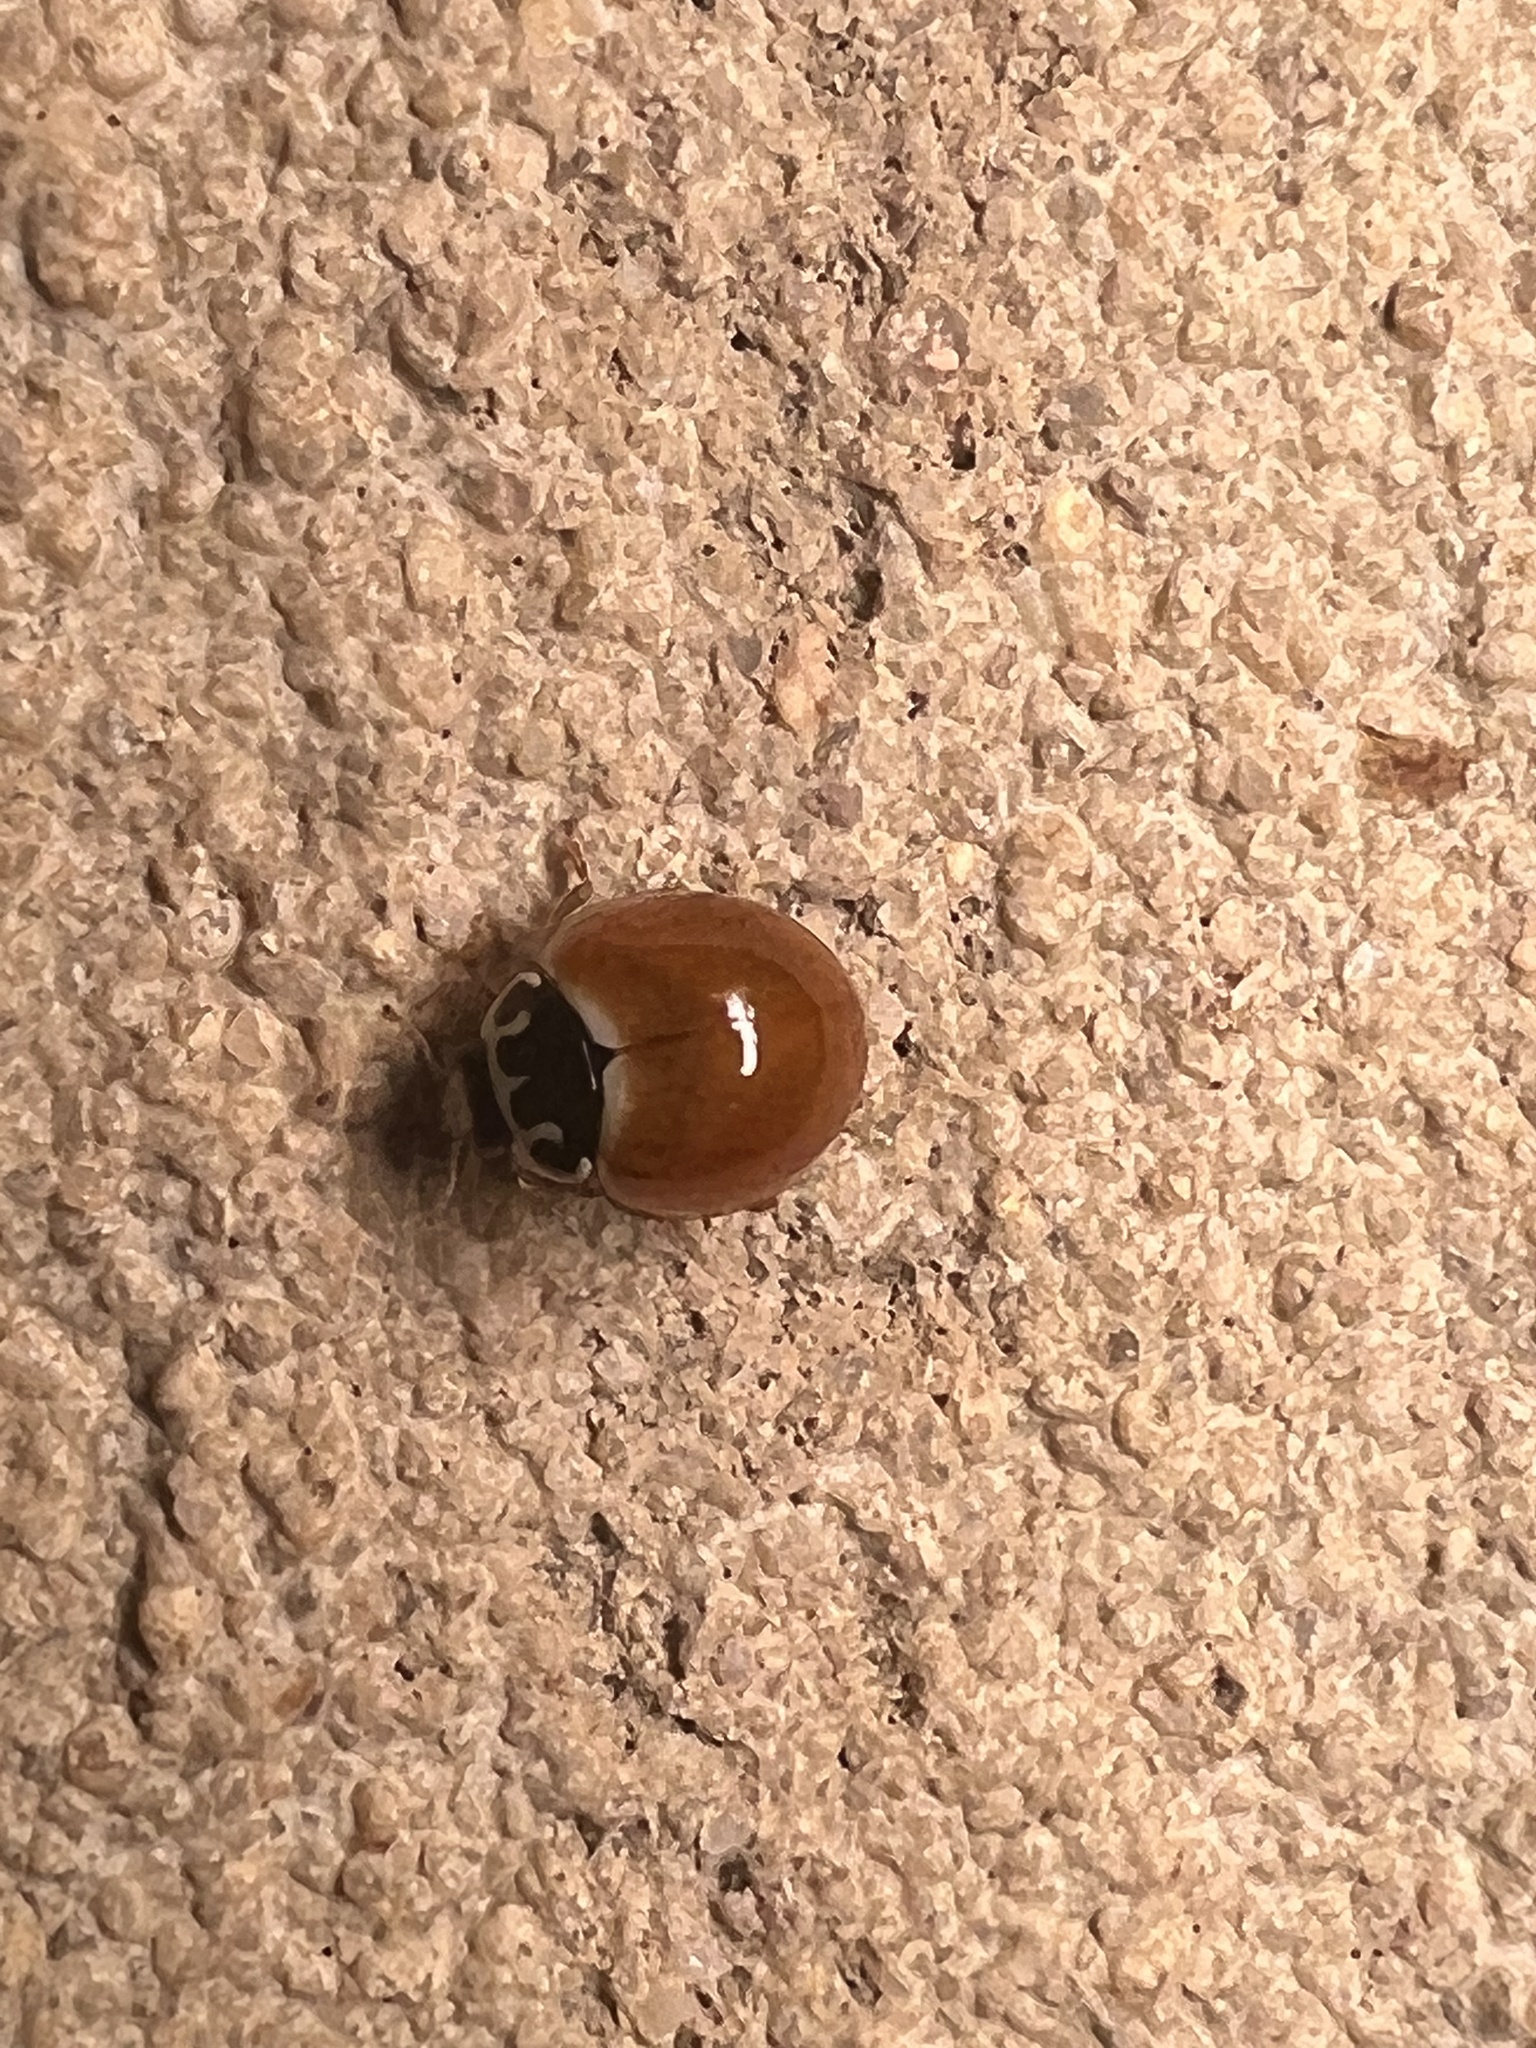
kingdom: Animalia
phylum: Arthropoda
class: Insecta
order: Coleoptera
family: Coccinellidae
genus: Cycloneda
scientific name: Cycloneda munda
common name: Polished lady beetle
